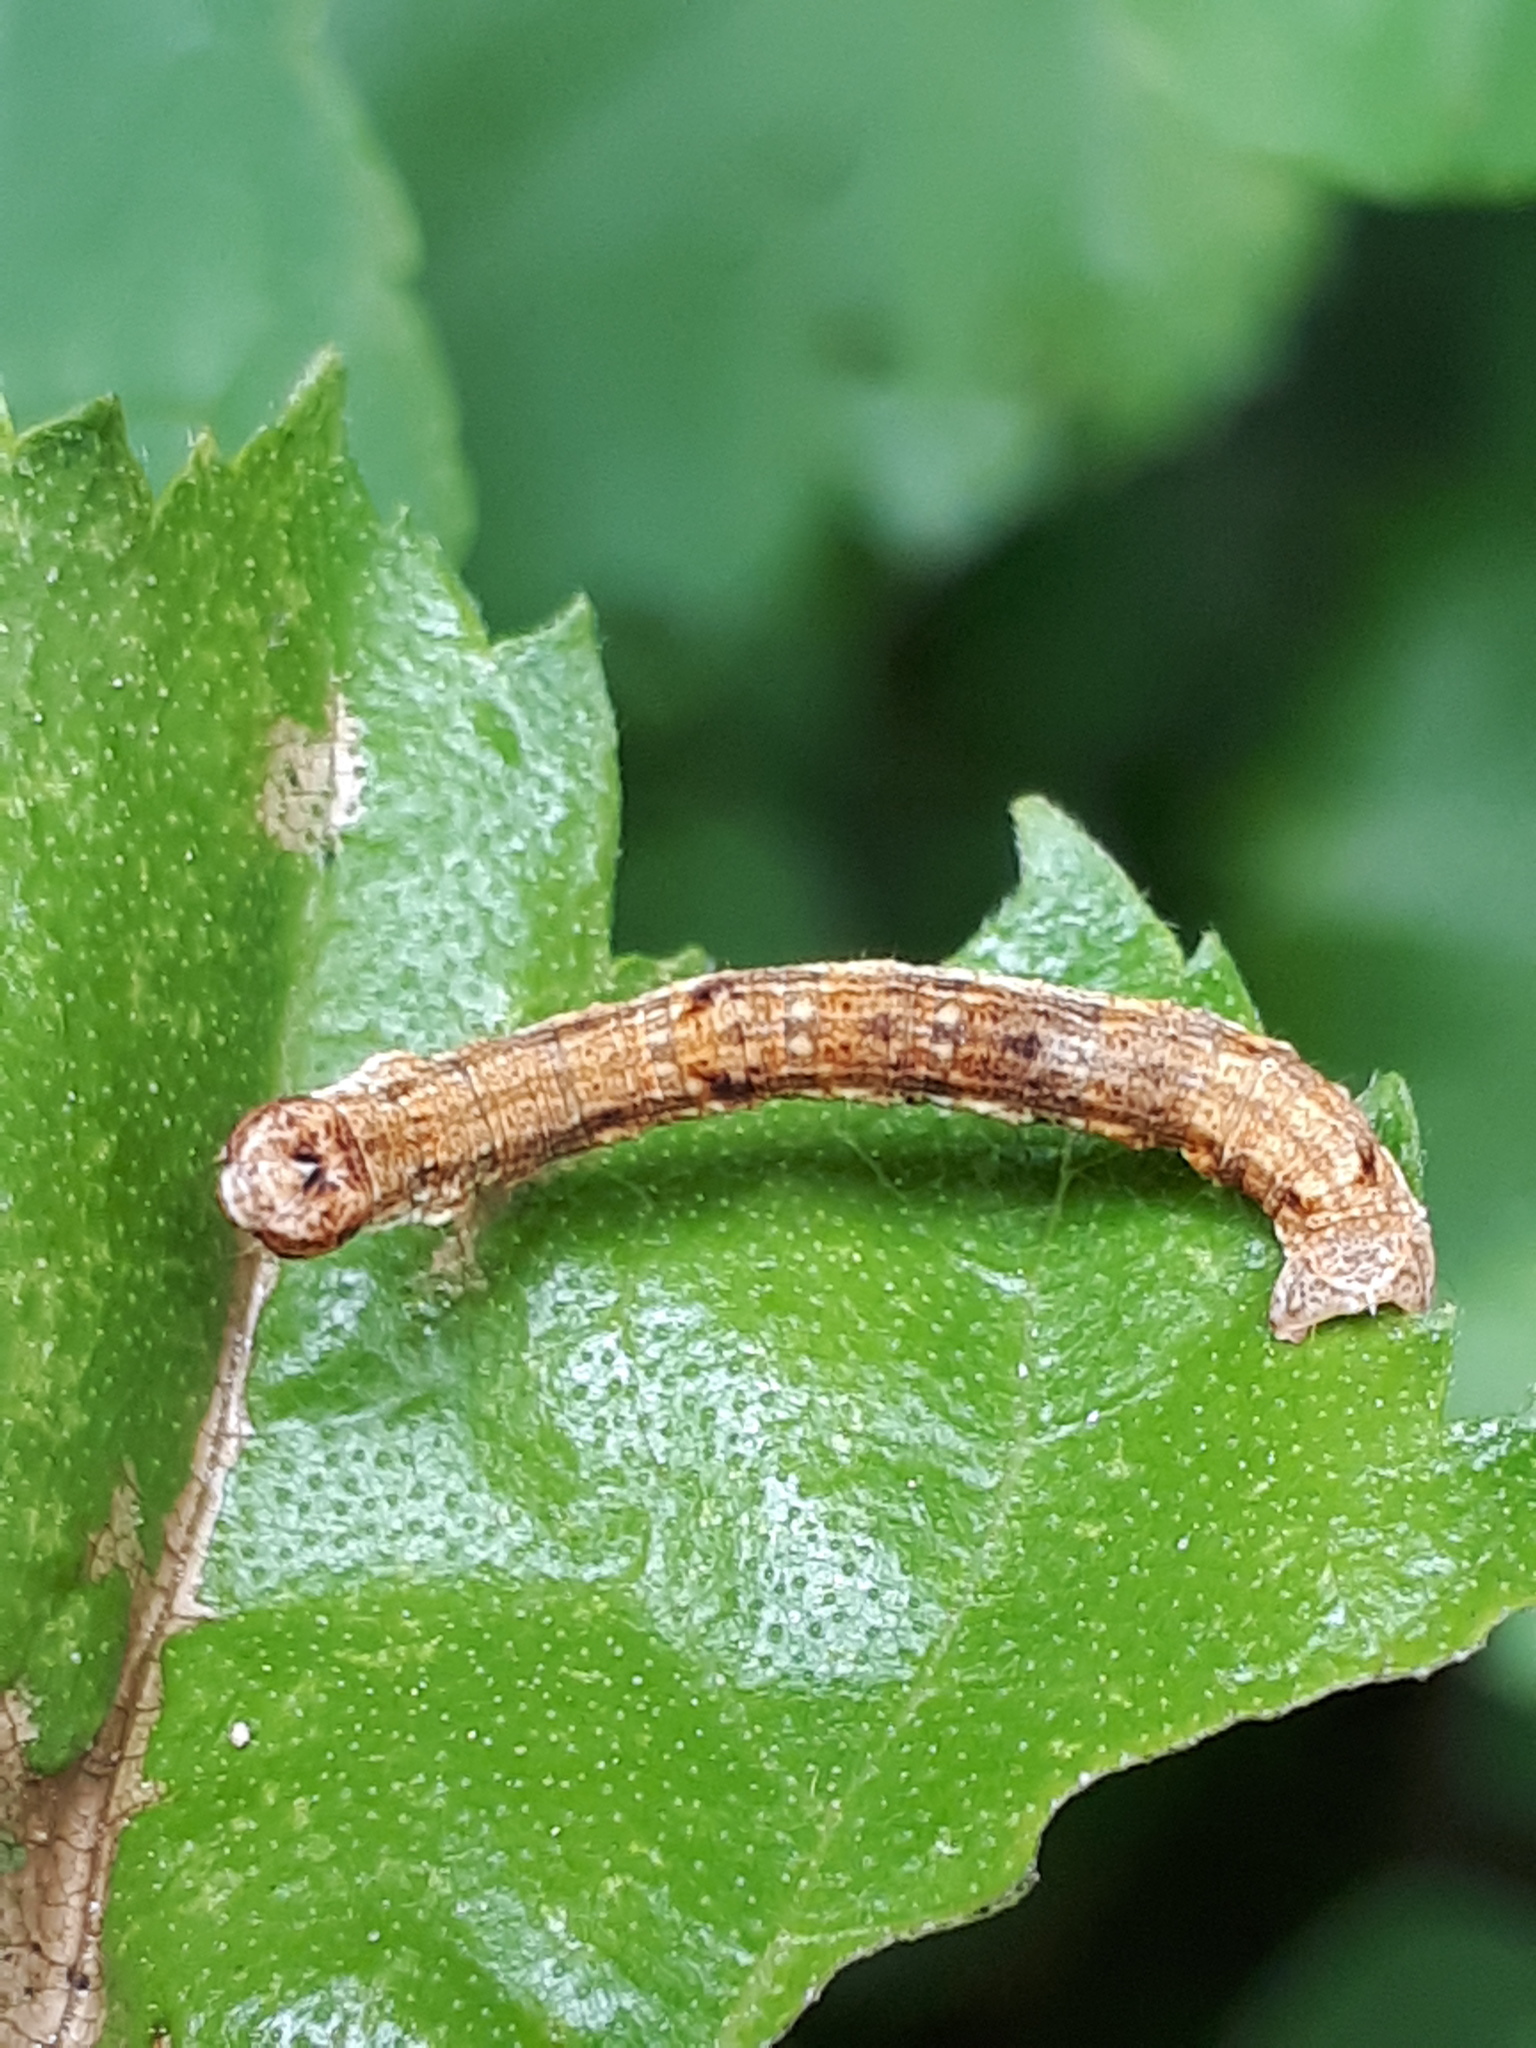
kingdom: Animalia
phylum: Arthropoda
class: Insecta
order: Lepidoptera
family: Geometridae
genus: Ectropis
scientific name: Ectropis crepuscularia
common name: Engrailed
